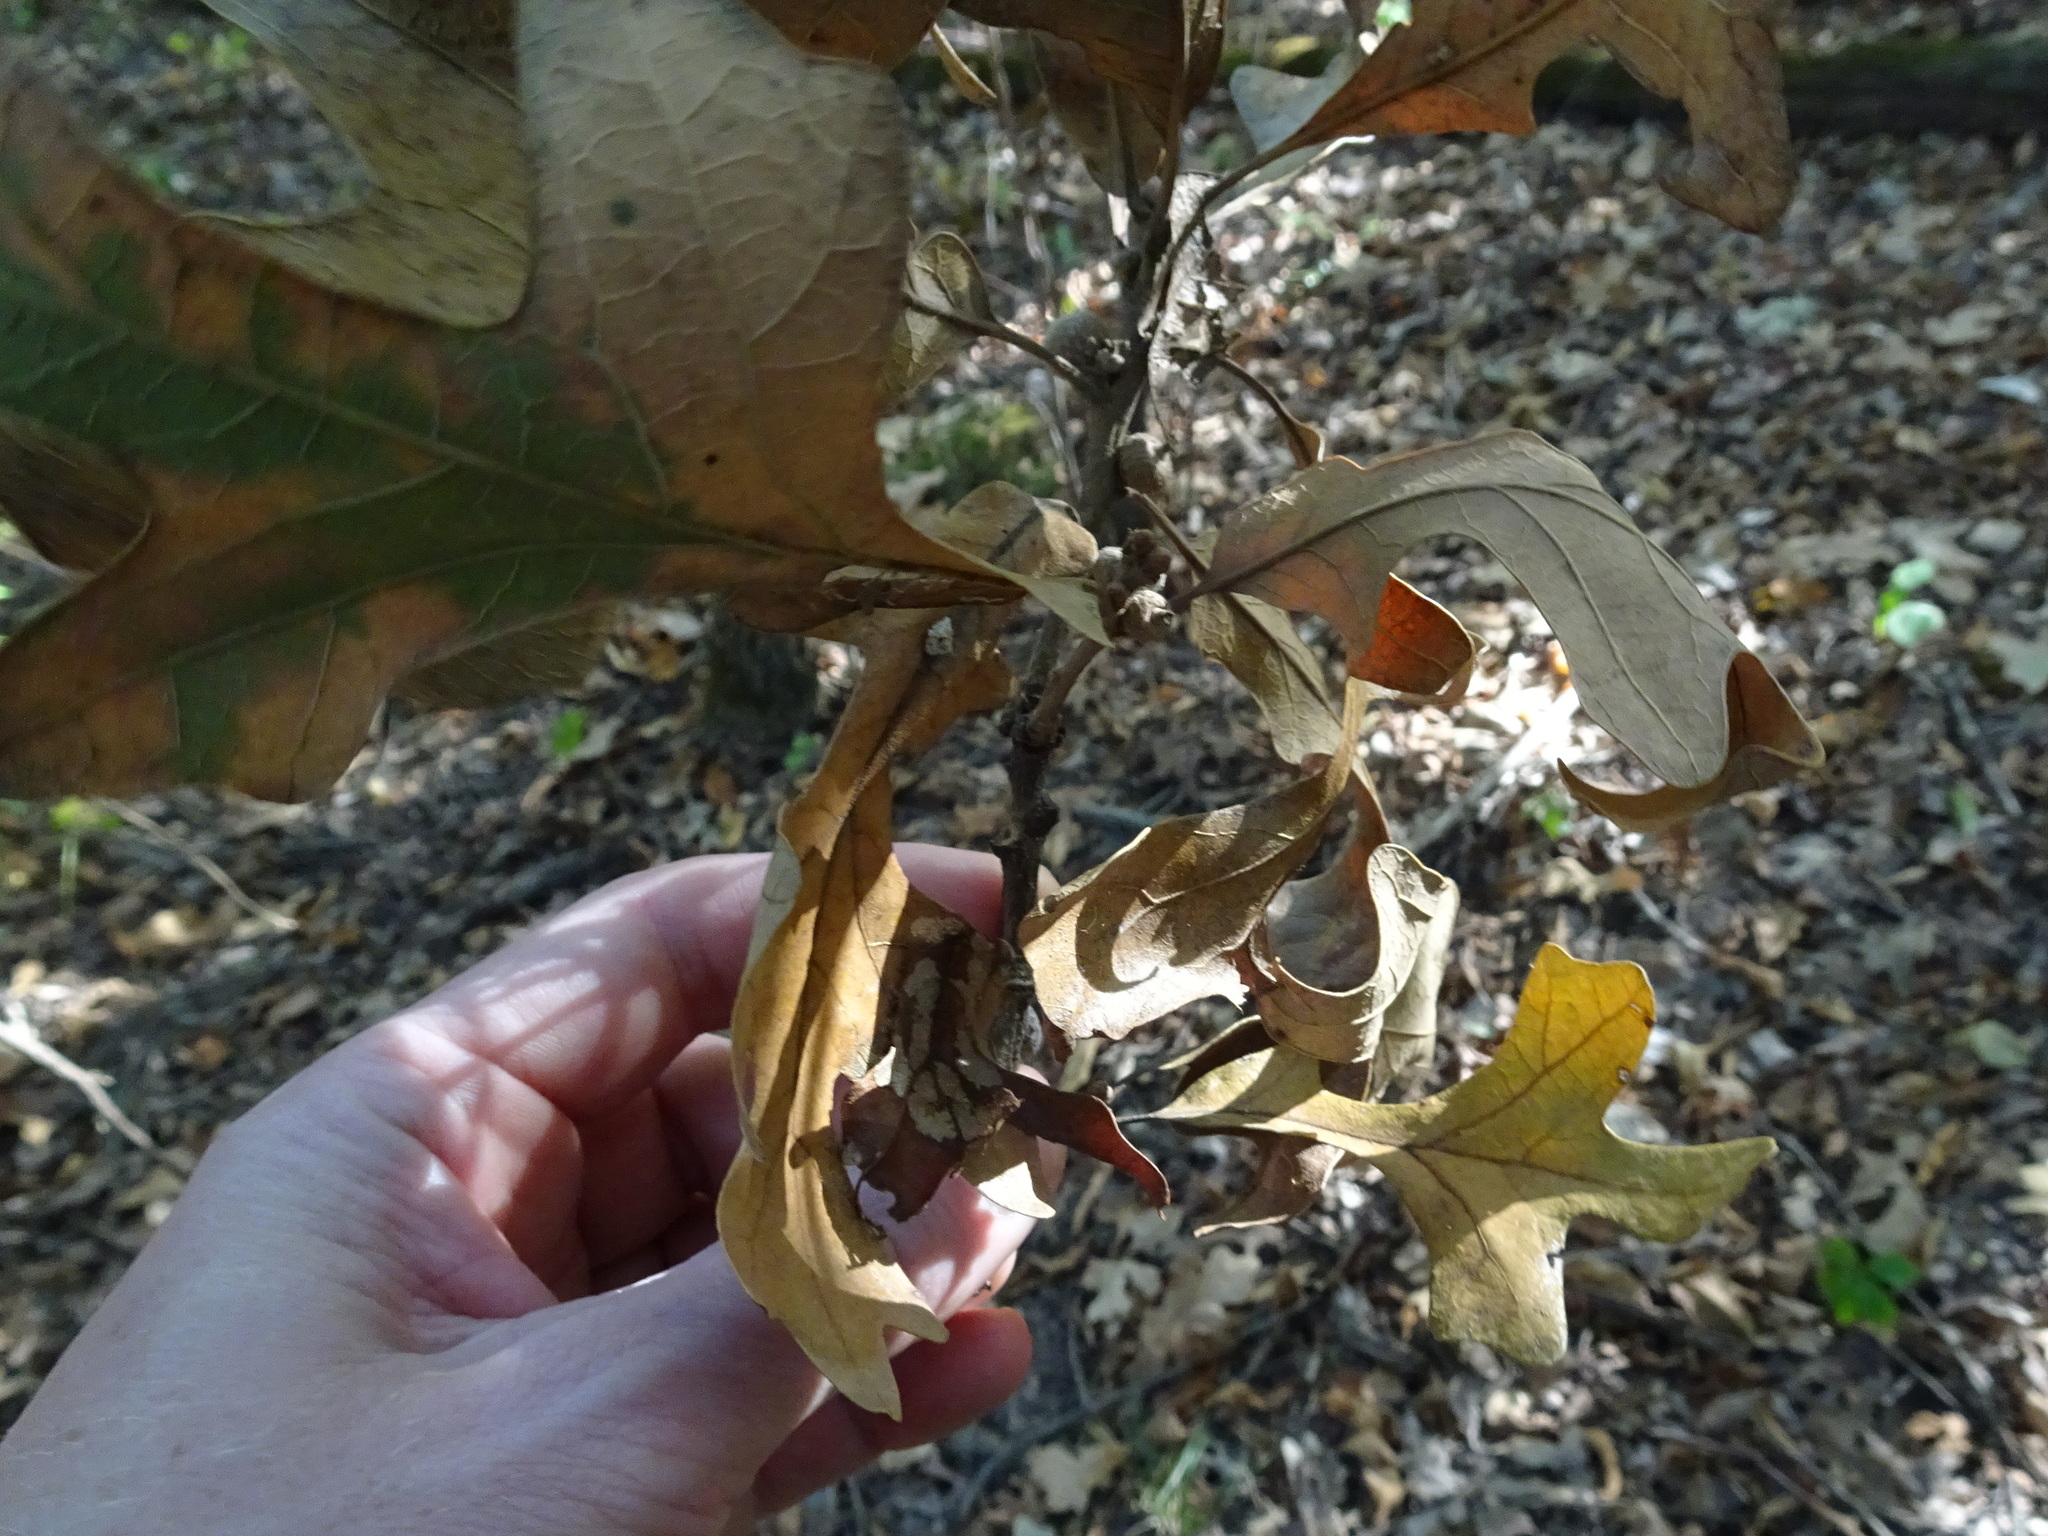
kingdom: Plantae
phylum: Tracheophyta
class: Magnoliopsida
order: Fagales
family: Fagaceae
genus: Quercus
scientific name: Quercus stellata
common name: Post oak
